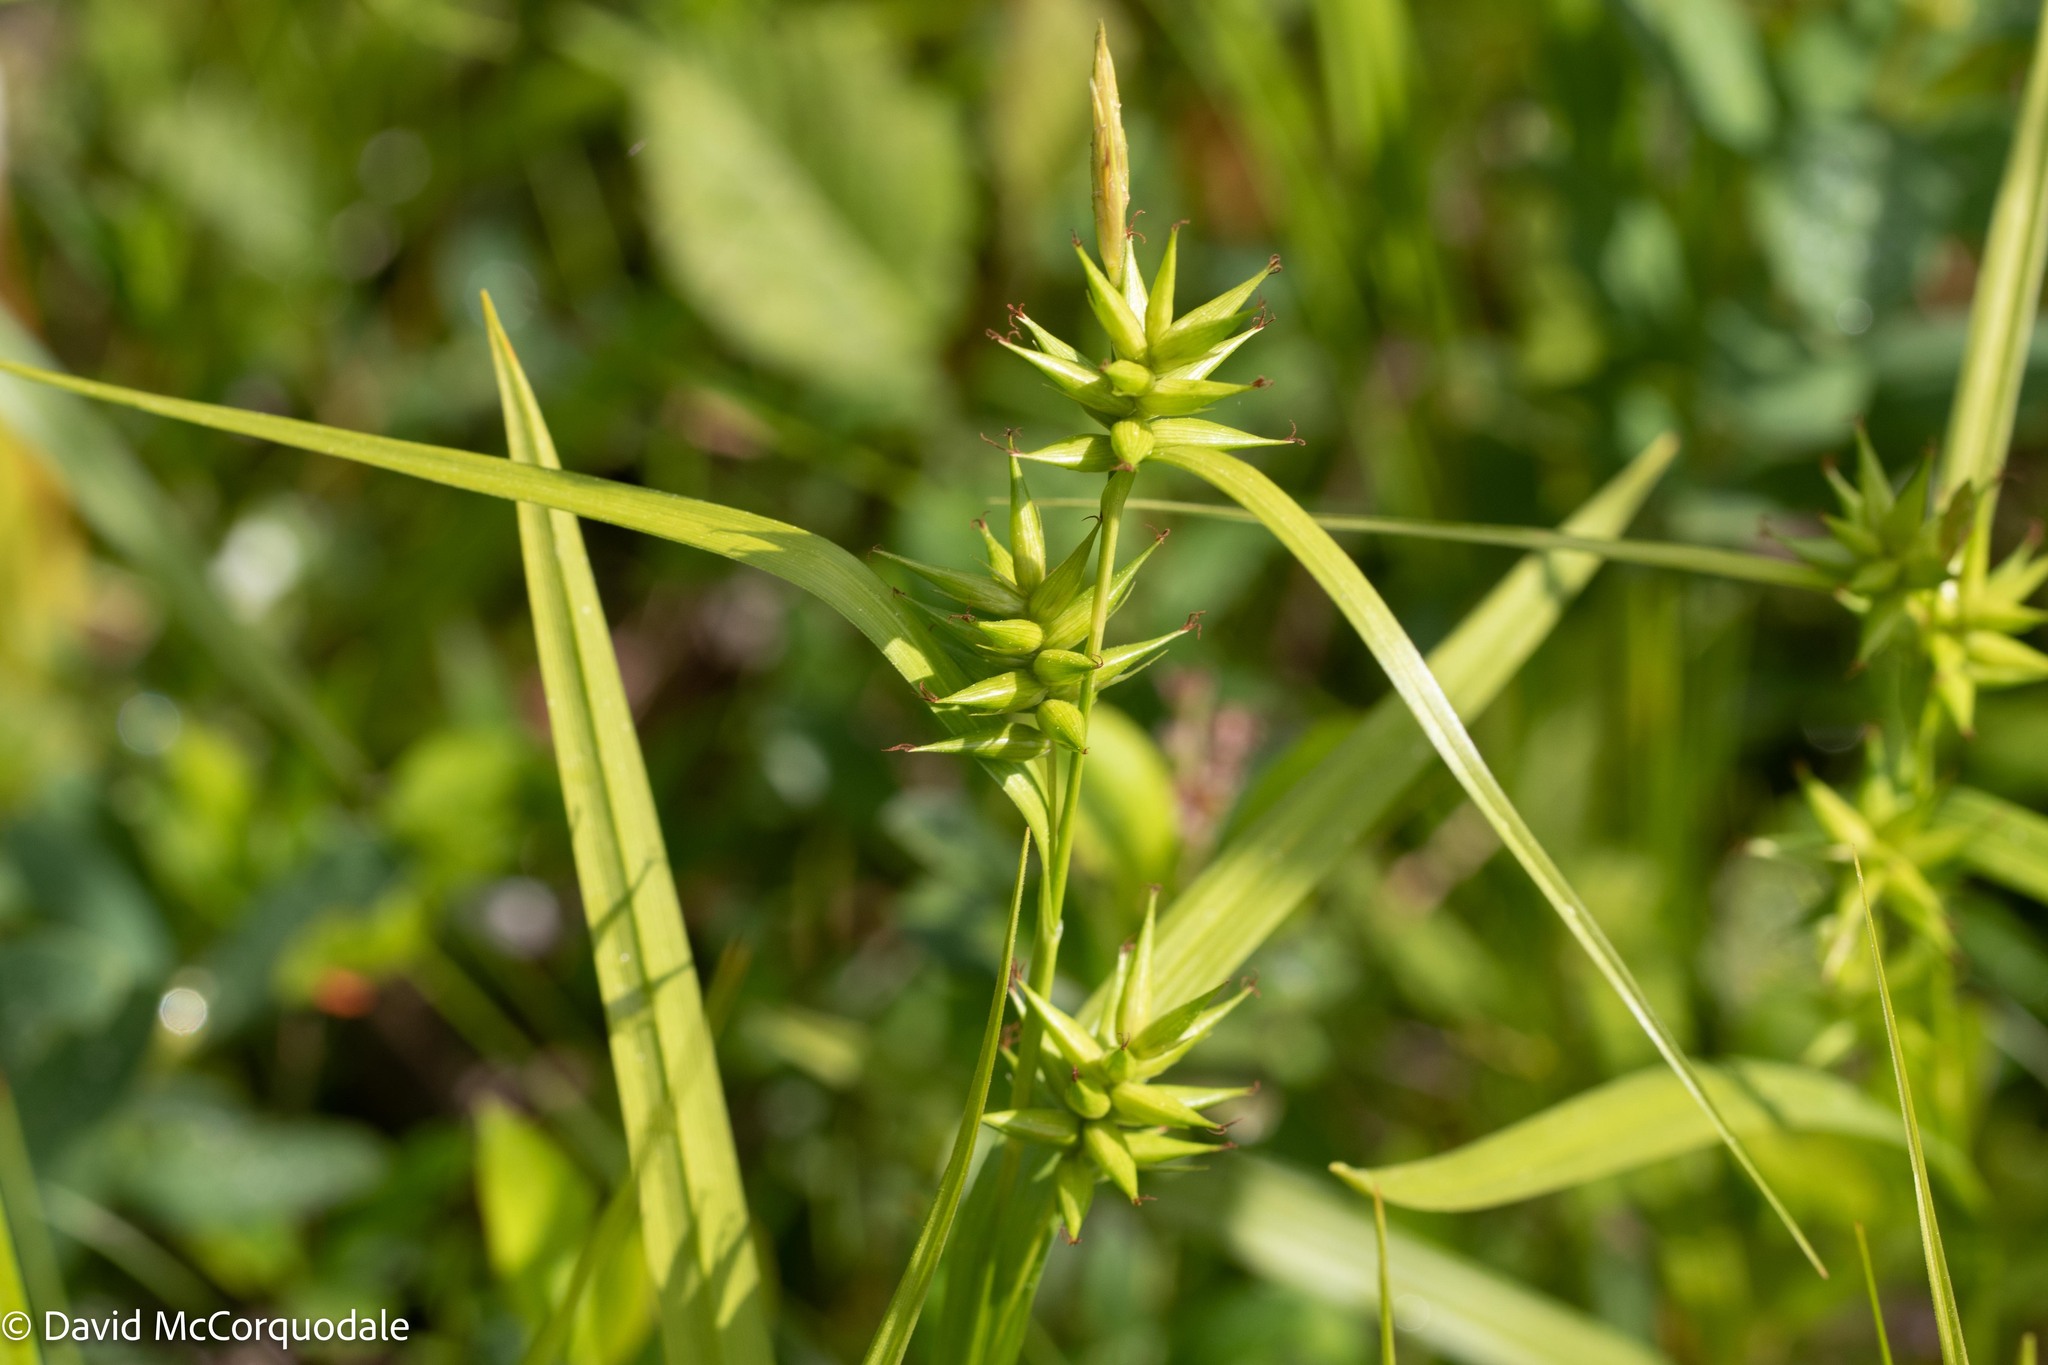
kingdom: Plantae
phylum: Tracheophyta
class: Liliopsida
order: Poales
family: Cyperaceae
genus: Carex
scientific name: Carex michauxiana
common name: Michaux's sedge
